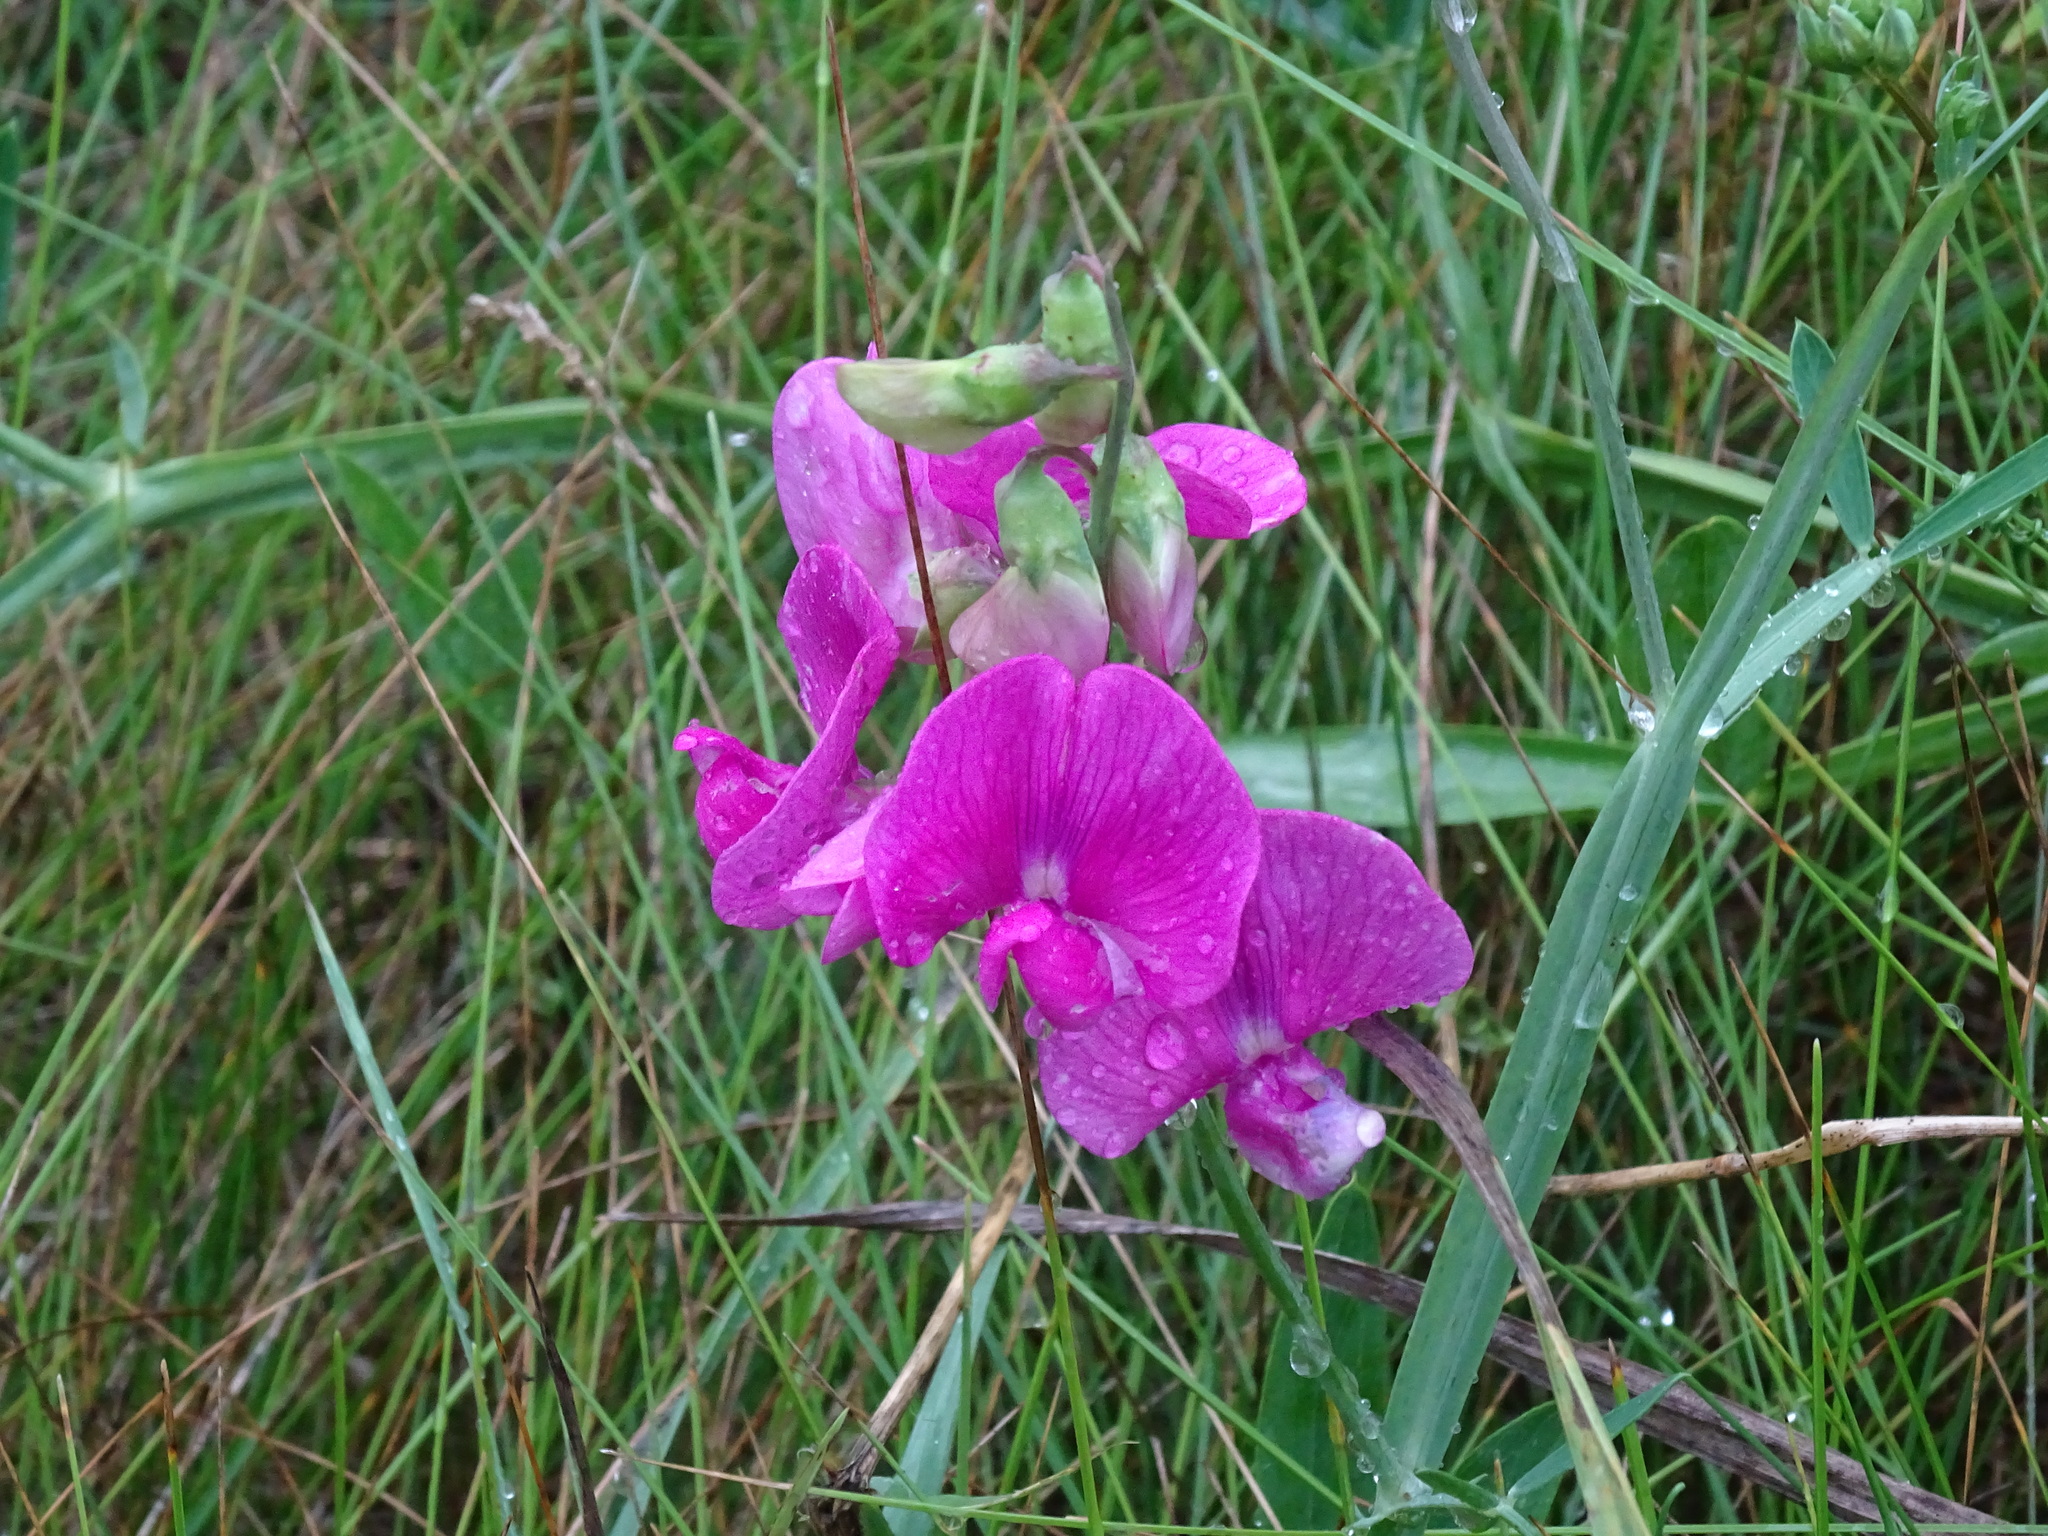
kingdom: Plantae
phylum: Tracheophyta
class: Magnoliopsida
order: Fabales
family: Fabaceae
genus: Lathyrus
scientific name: Lathyrus latifolius
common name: Perennial pea
